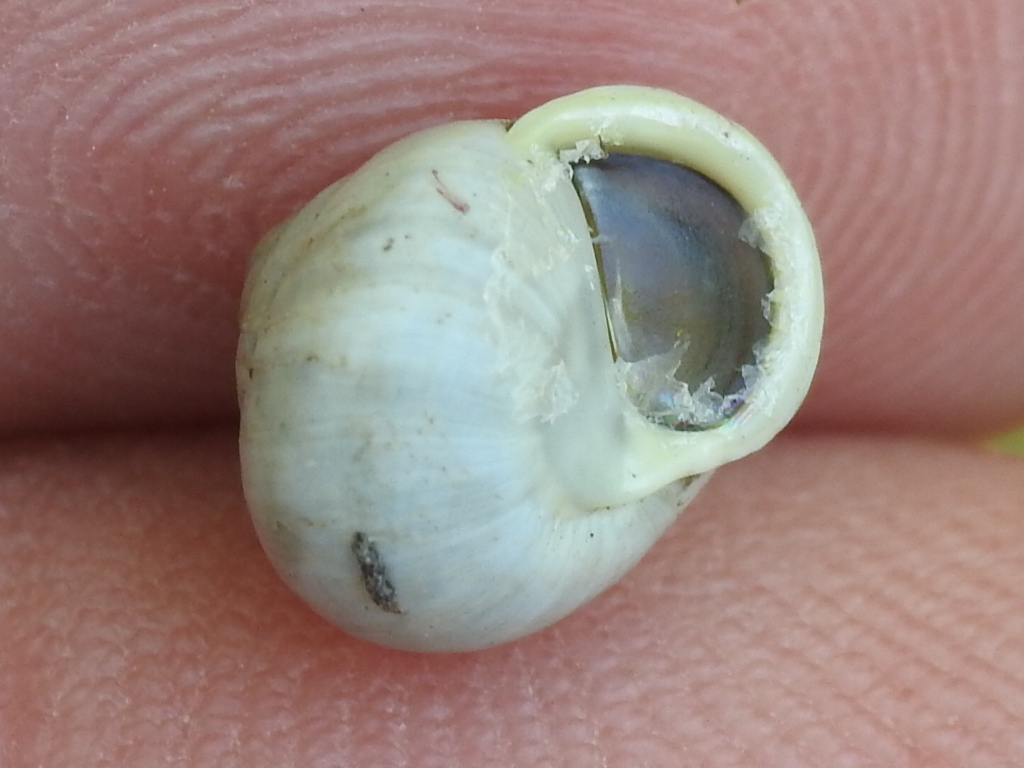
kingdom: Animalia
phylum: Mollusca
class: Gastropoda
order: Cycloneritida
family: Helicinidae
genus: Helicina
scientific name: Helicina orbiculata
